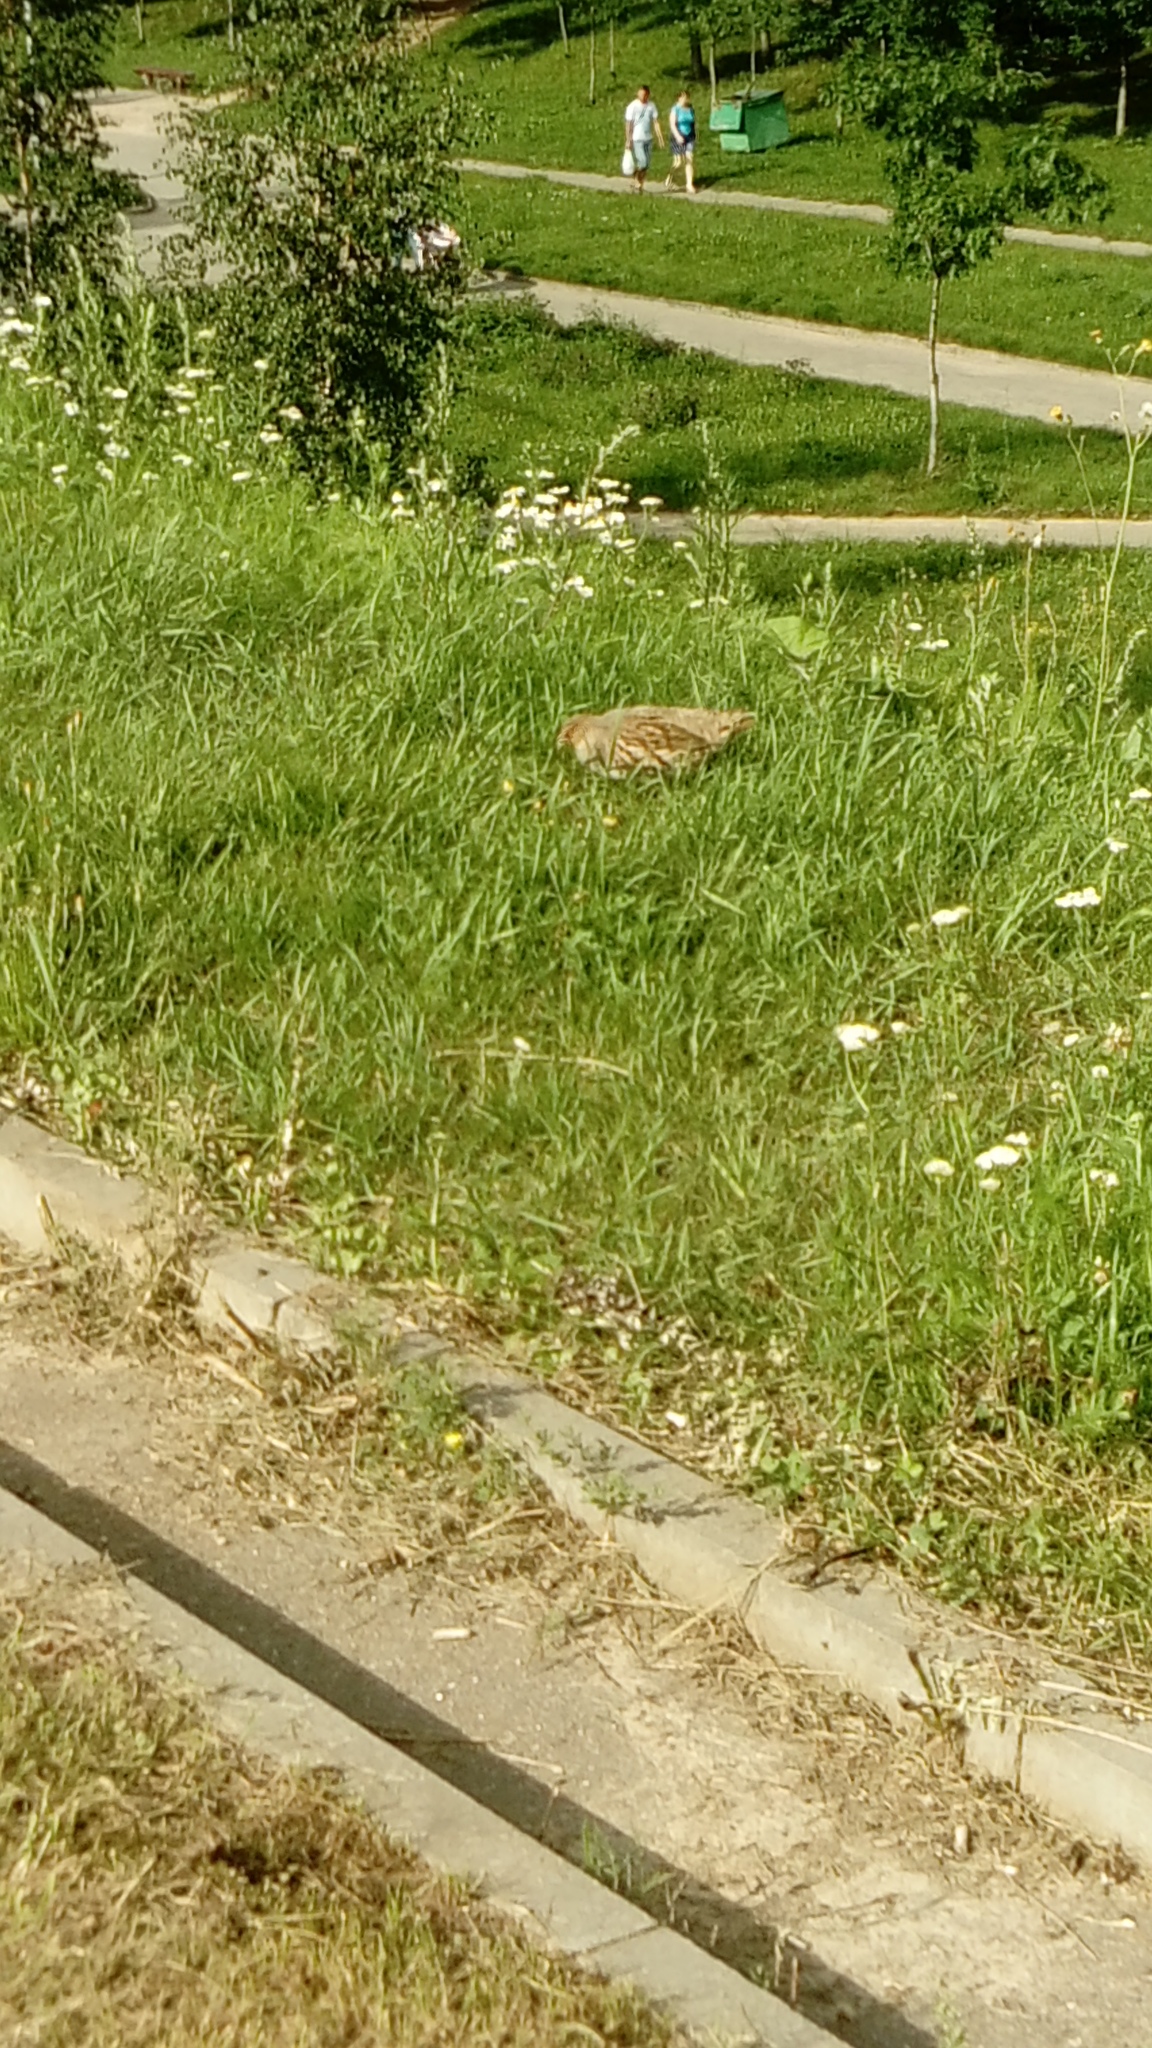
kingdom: Animalia
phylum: Chordata
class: Aves
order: Galliformes
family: Phasianidae
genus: Perdix
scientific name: Perdix perdix
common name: Grey partridge
